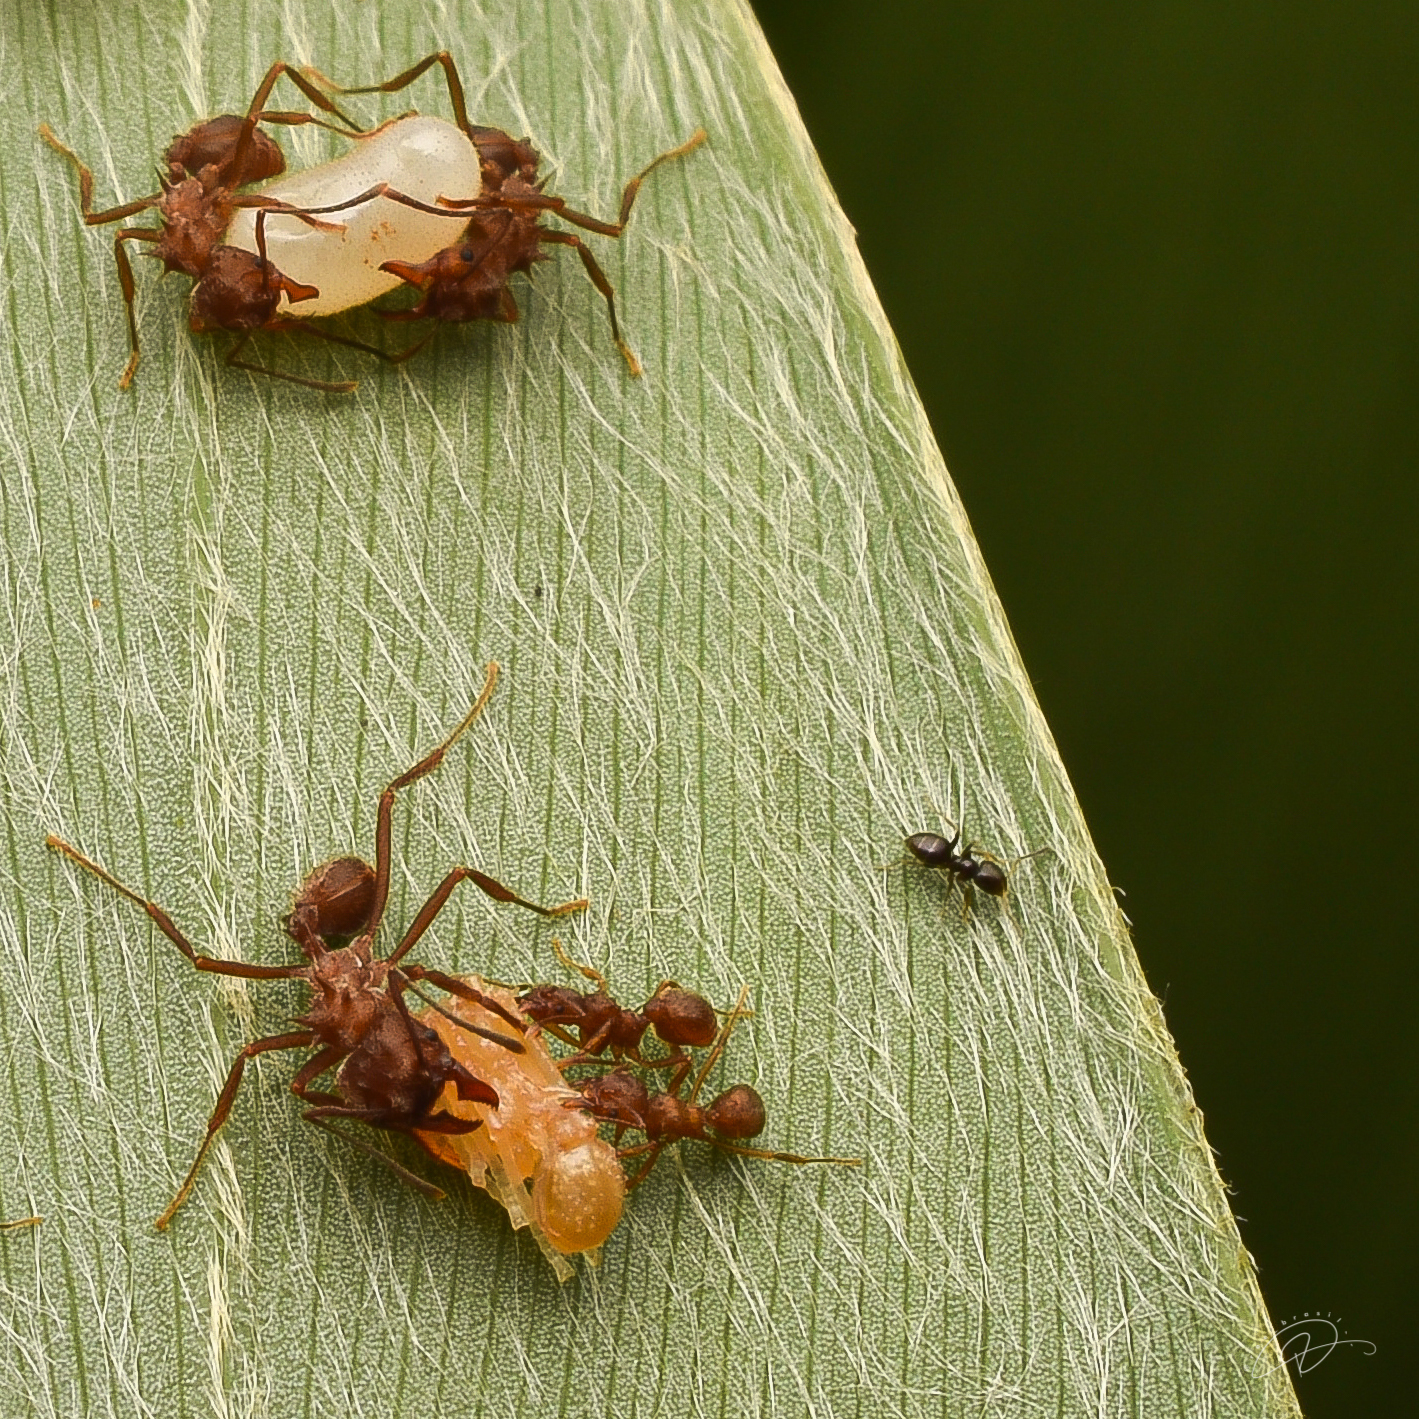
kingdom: Animalia
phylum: Arthropoda
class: Insecta
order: Hymenoptera
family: Formicidae
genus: Acromyrmex
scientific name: Acromyrmex disciger
